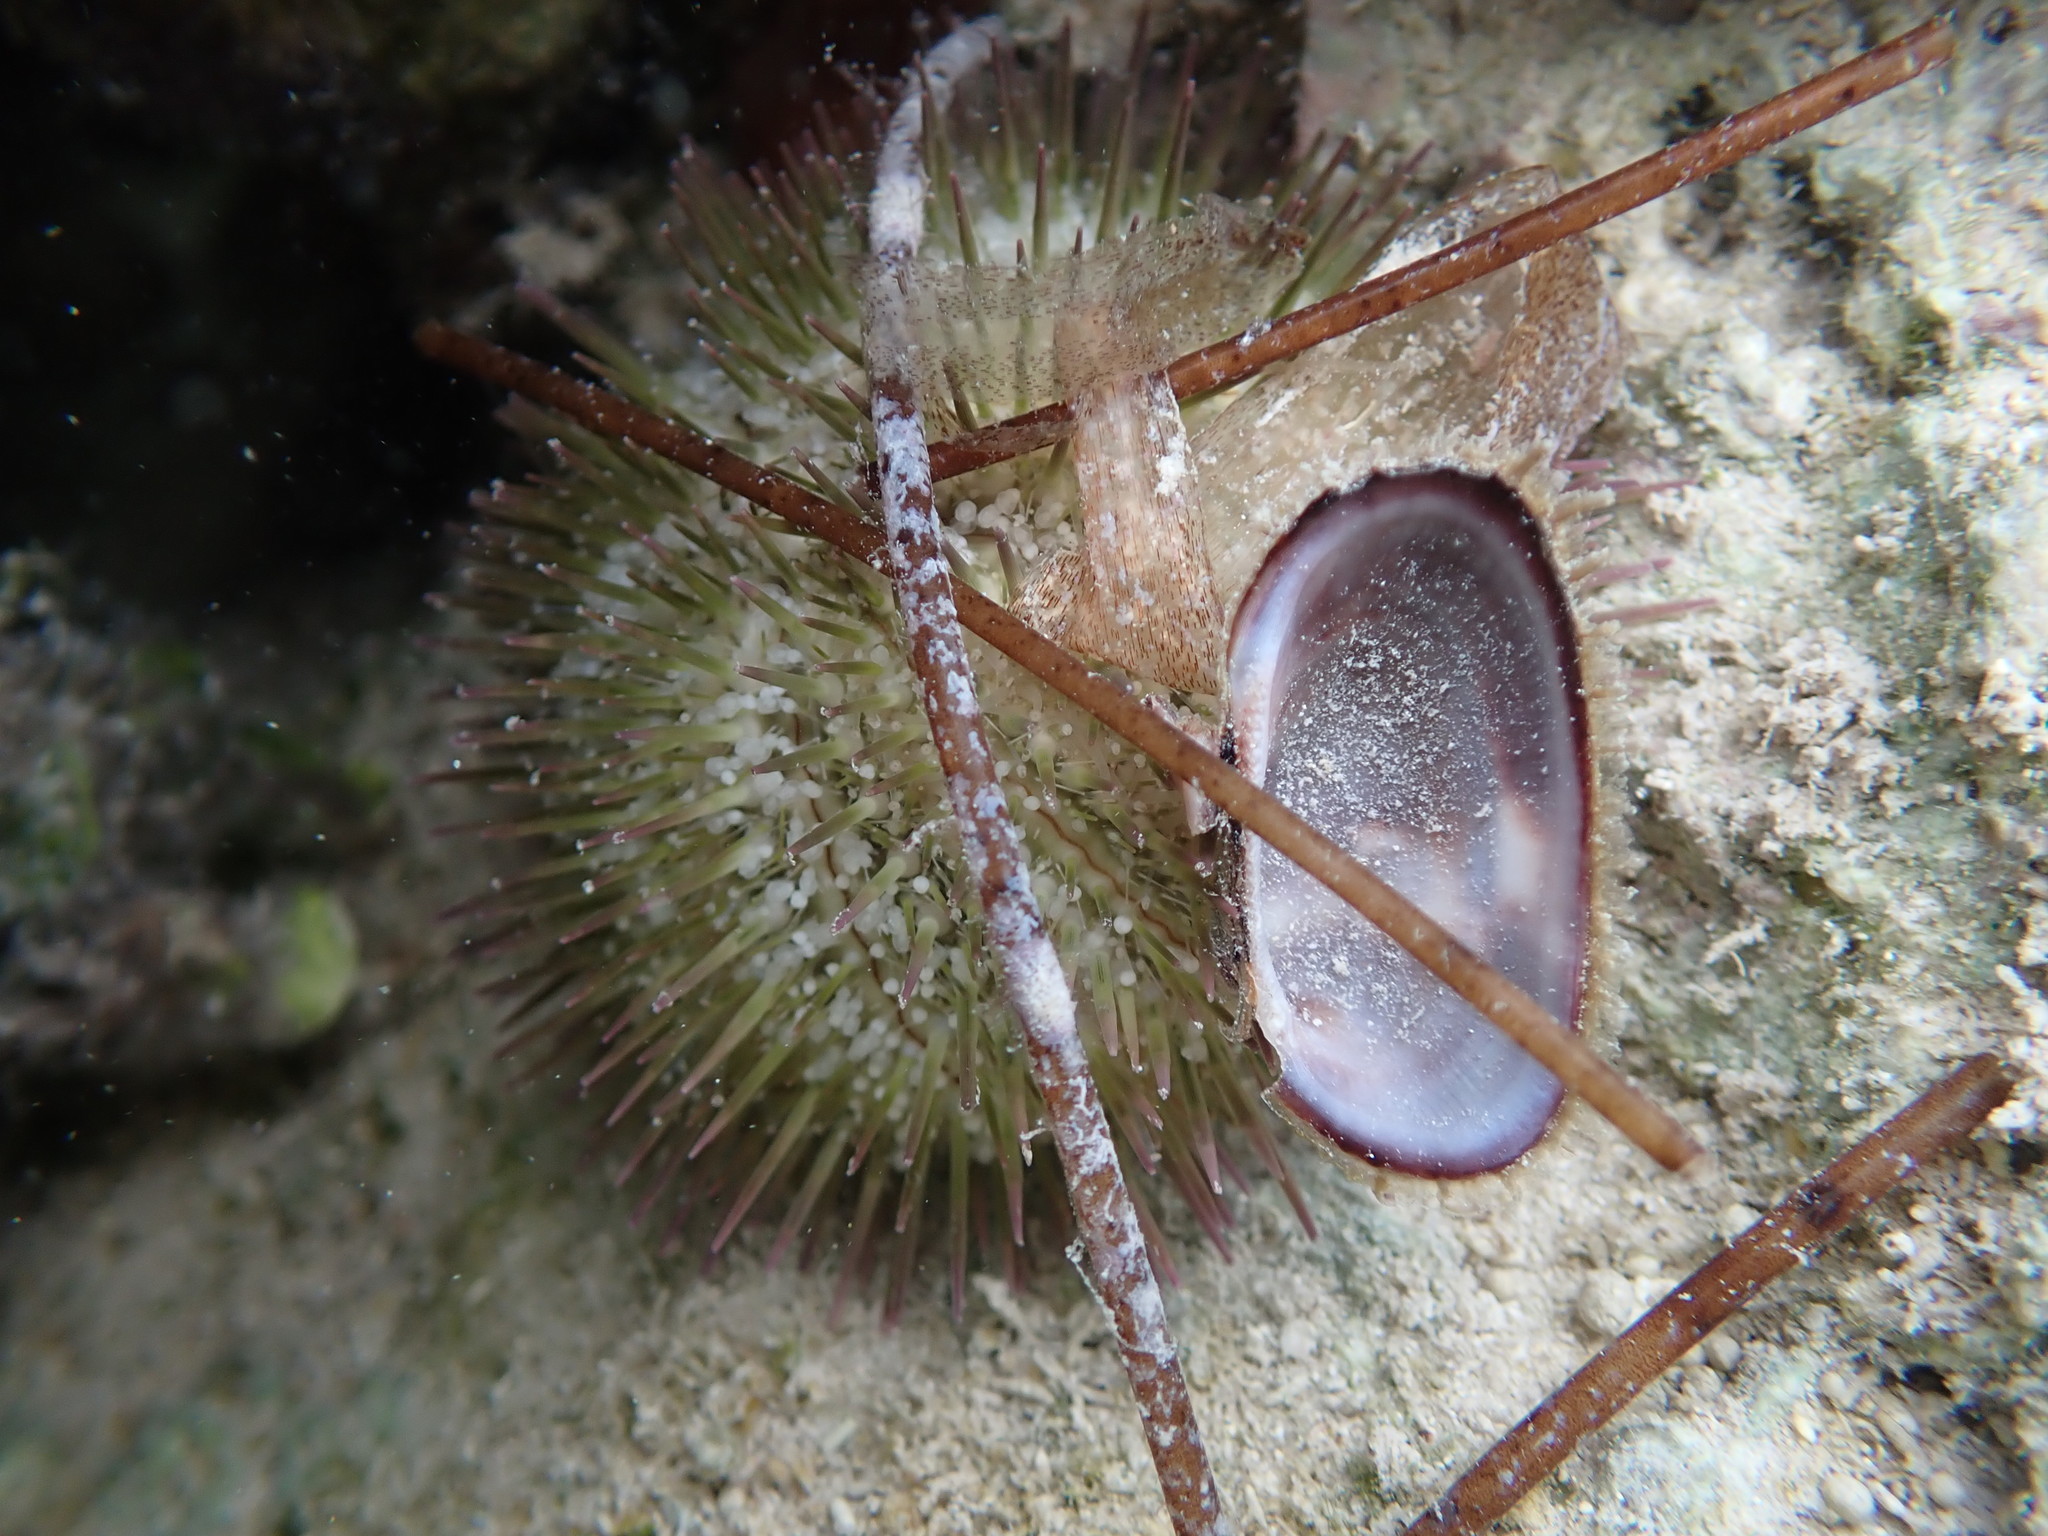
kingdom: Animalia
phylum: Echinodermata
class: Echinoidea
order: Camarodonta
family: Toxopneustidae
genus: Lytechinus
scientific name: Lytechinus variegatus
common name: Variegated urchin
